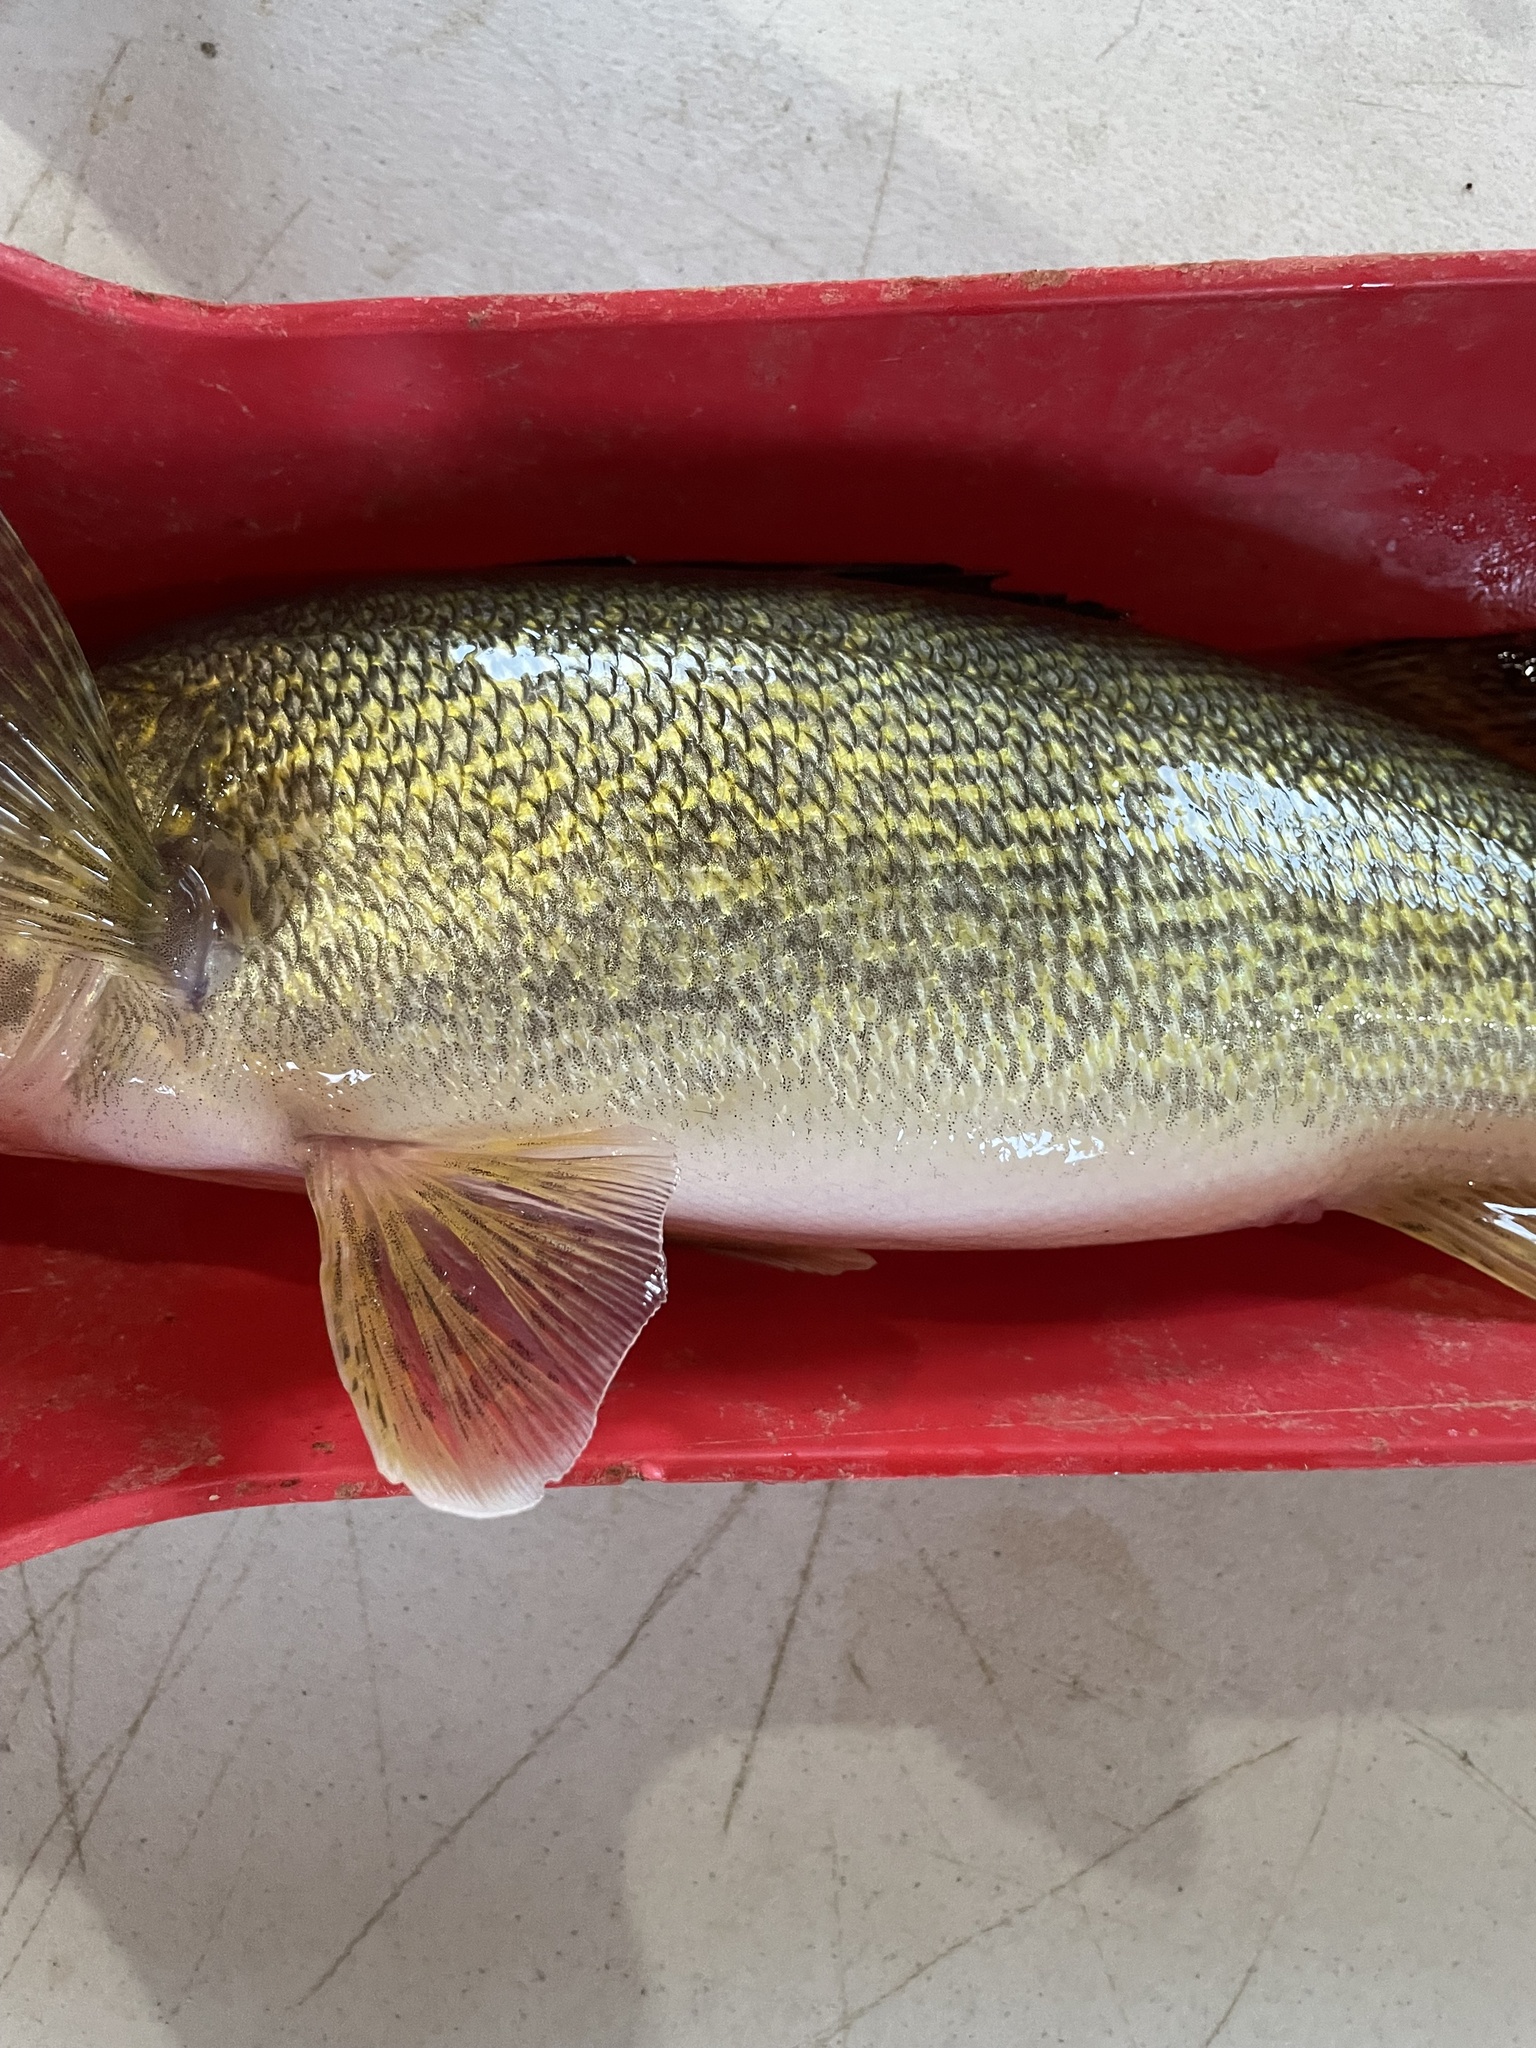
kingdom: Animalia
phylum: Chordata
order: Perciformes
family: Percidae
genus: Sander
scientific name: Sander vitreus
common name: Walleye
